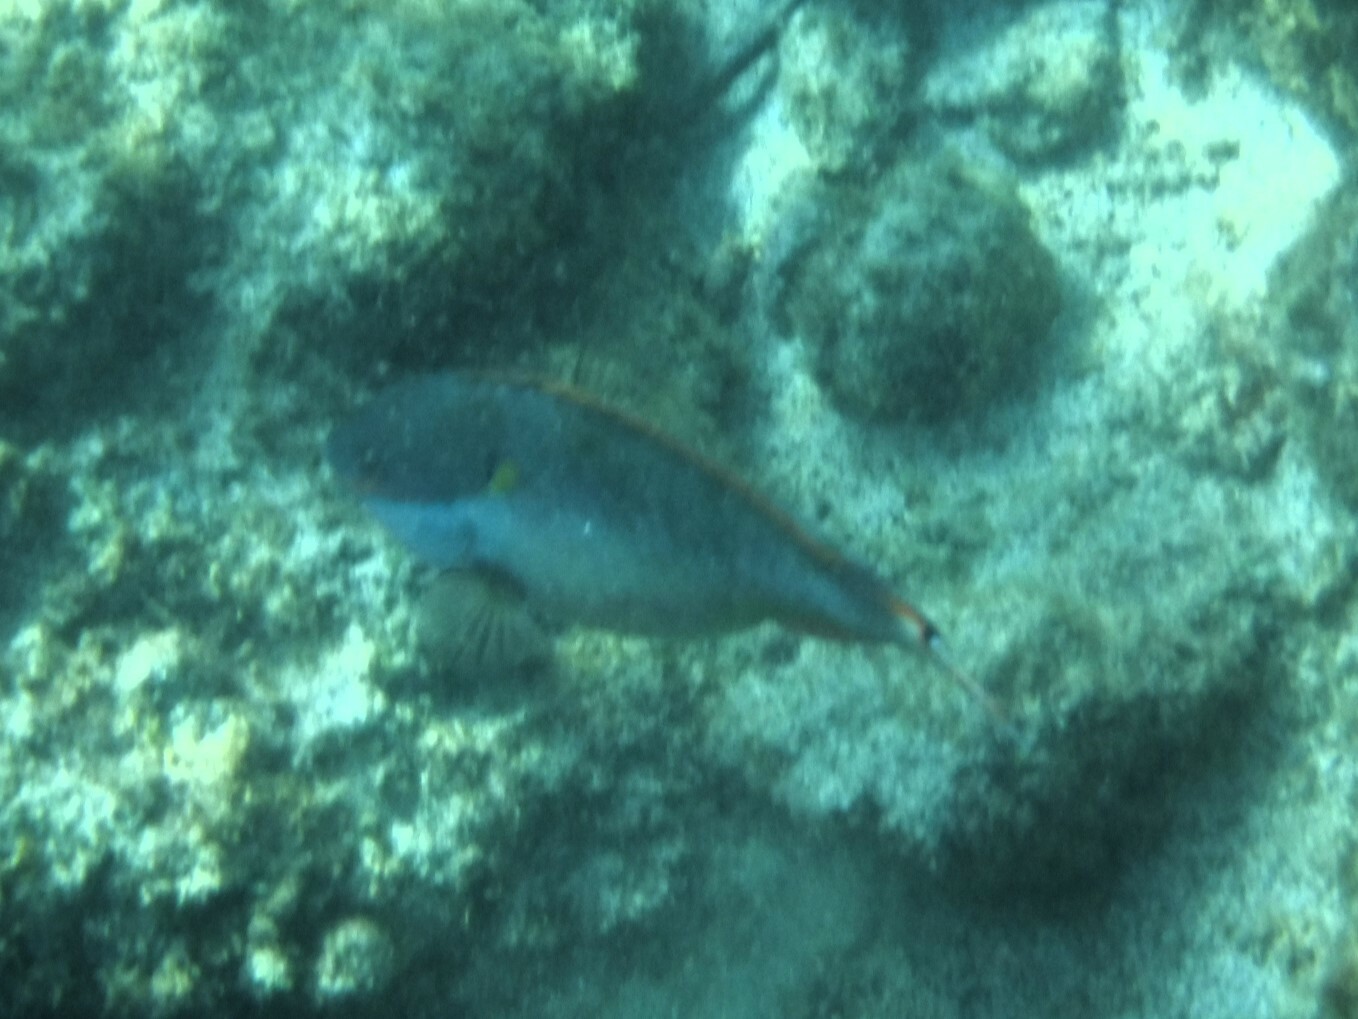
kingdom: Animalia
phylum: Chordata
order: Perciformes
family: Scaridae
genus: Sparisoma
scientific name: Sparisoma aurofrenatum
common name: Redband parrotfish
